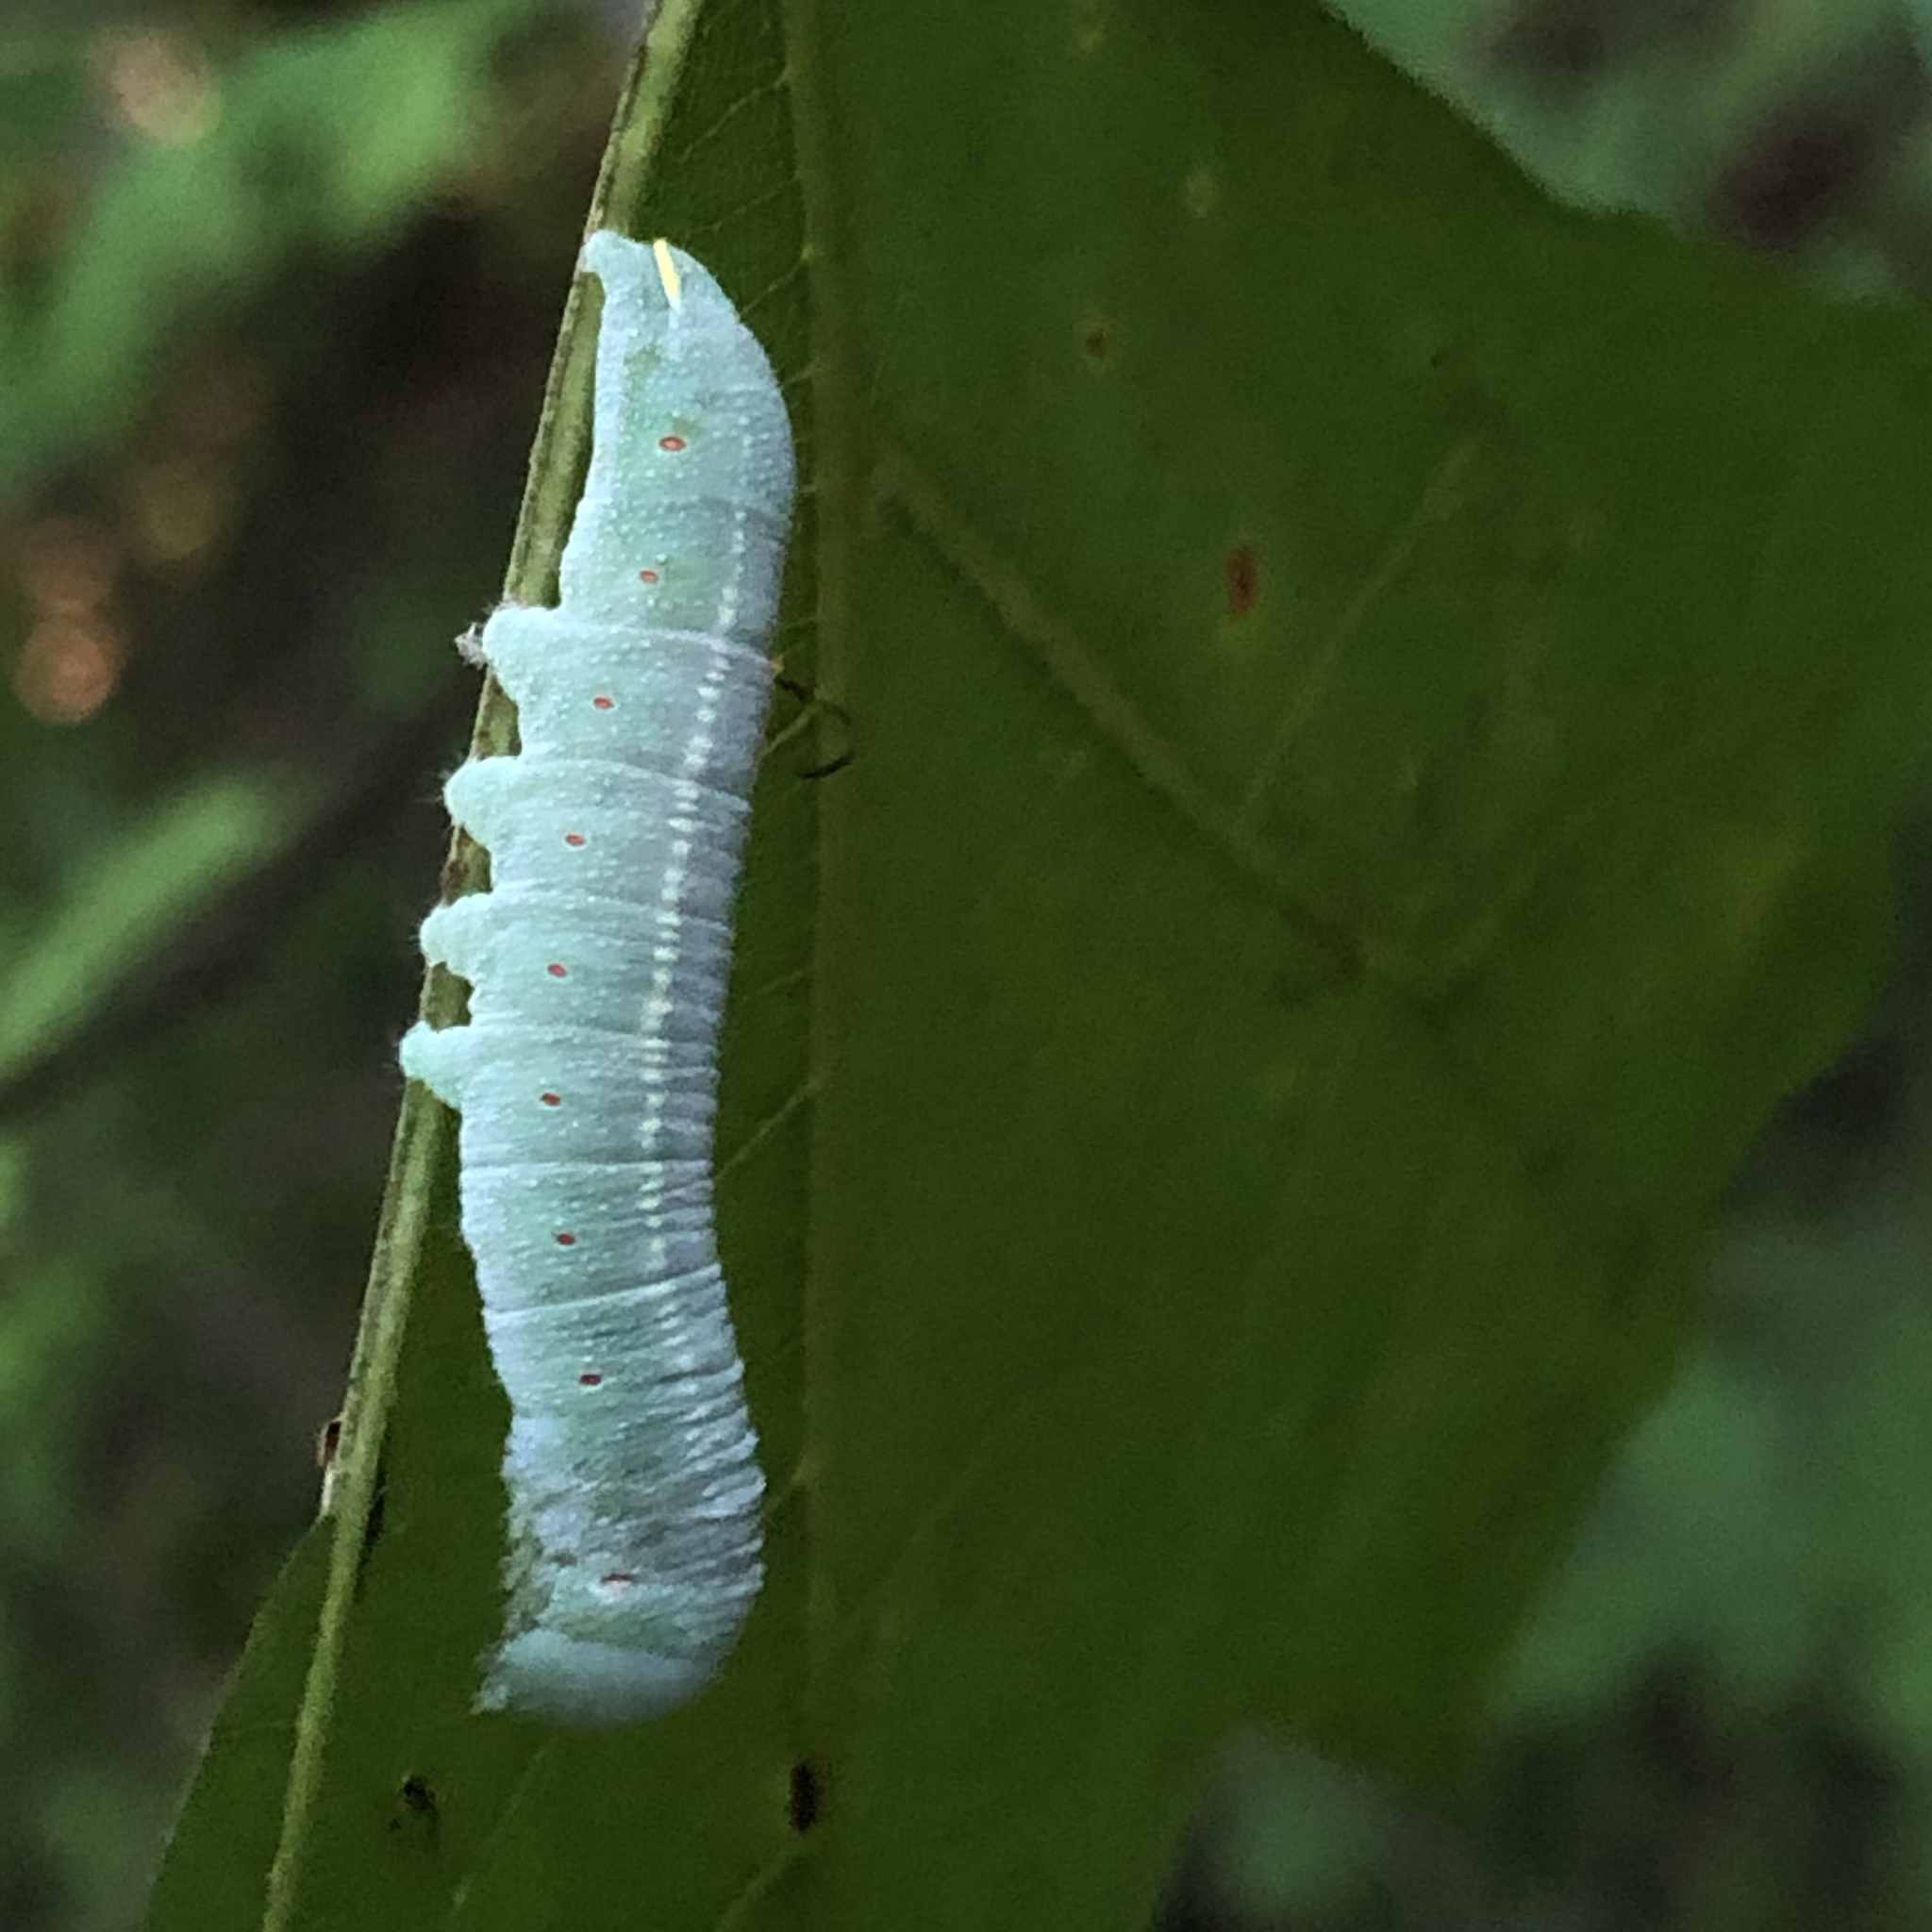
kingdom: Animalia
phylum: Arthropoda
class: Insecta
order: Lepidoptera
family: Notodontidae
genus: Nadata
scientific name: Nadata gibbosa
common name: White-dotted prominent
